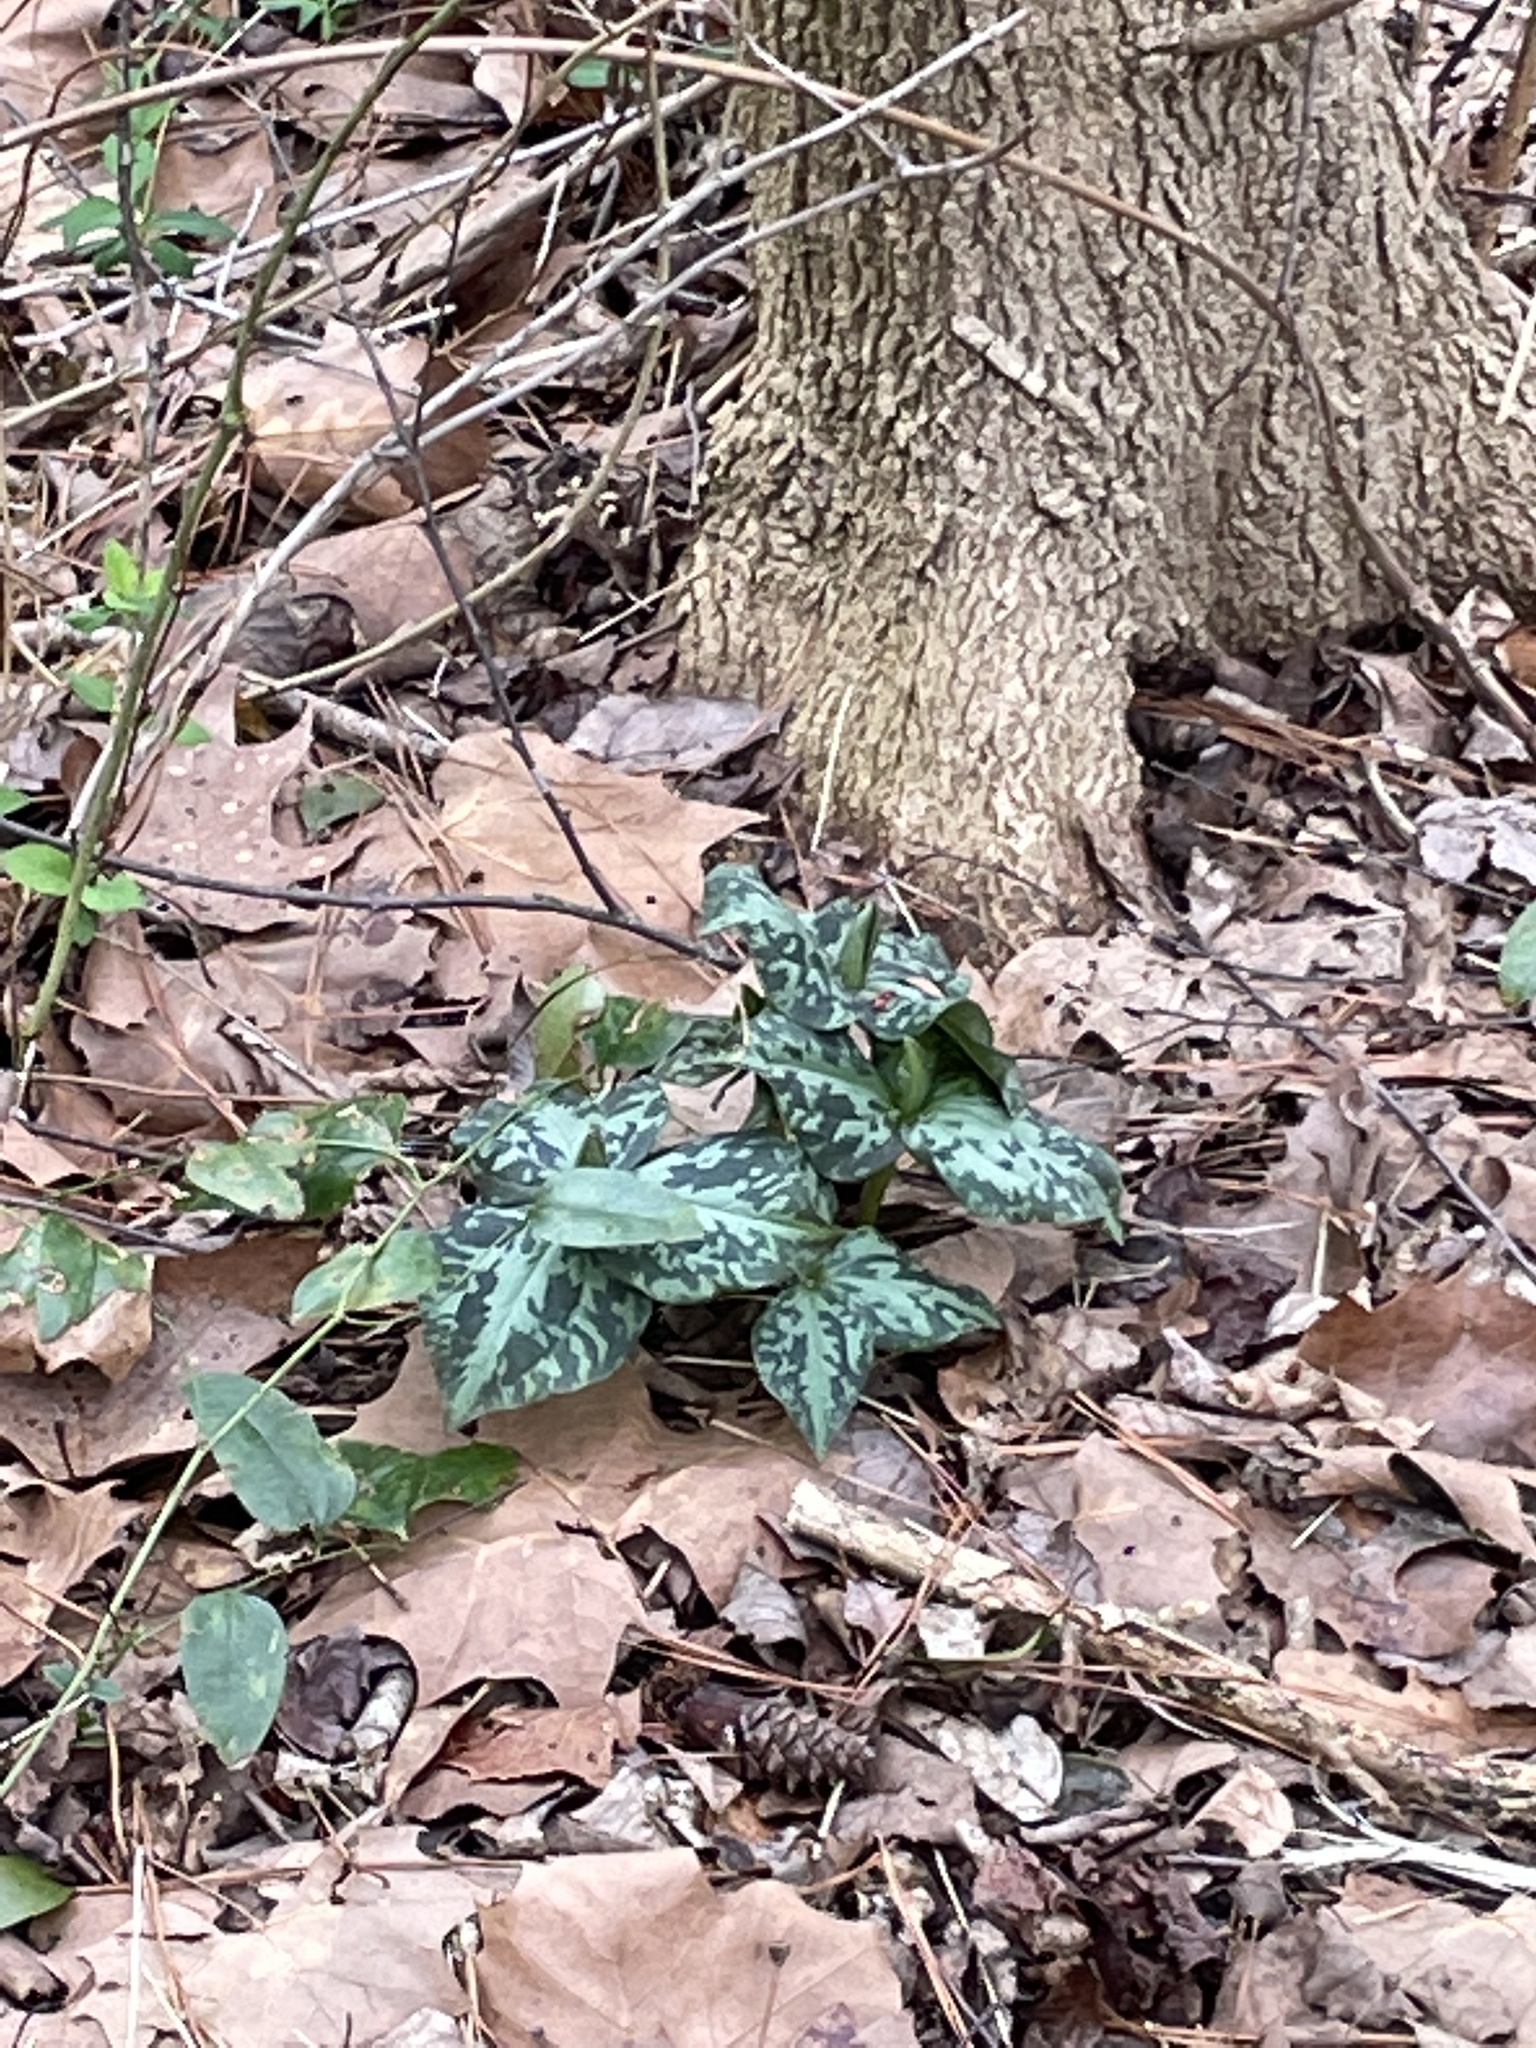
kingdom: Plantae
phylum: Tracheophyta
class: Liliopsida
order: Liliales
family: Melanthiaceae
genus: Trillium
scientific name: Trillium cuneatum
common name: Cuneate trillium
